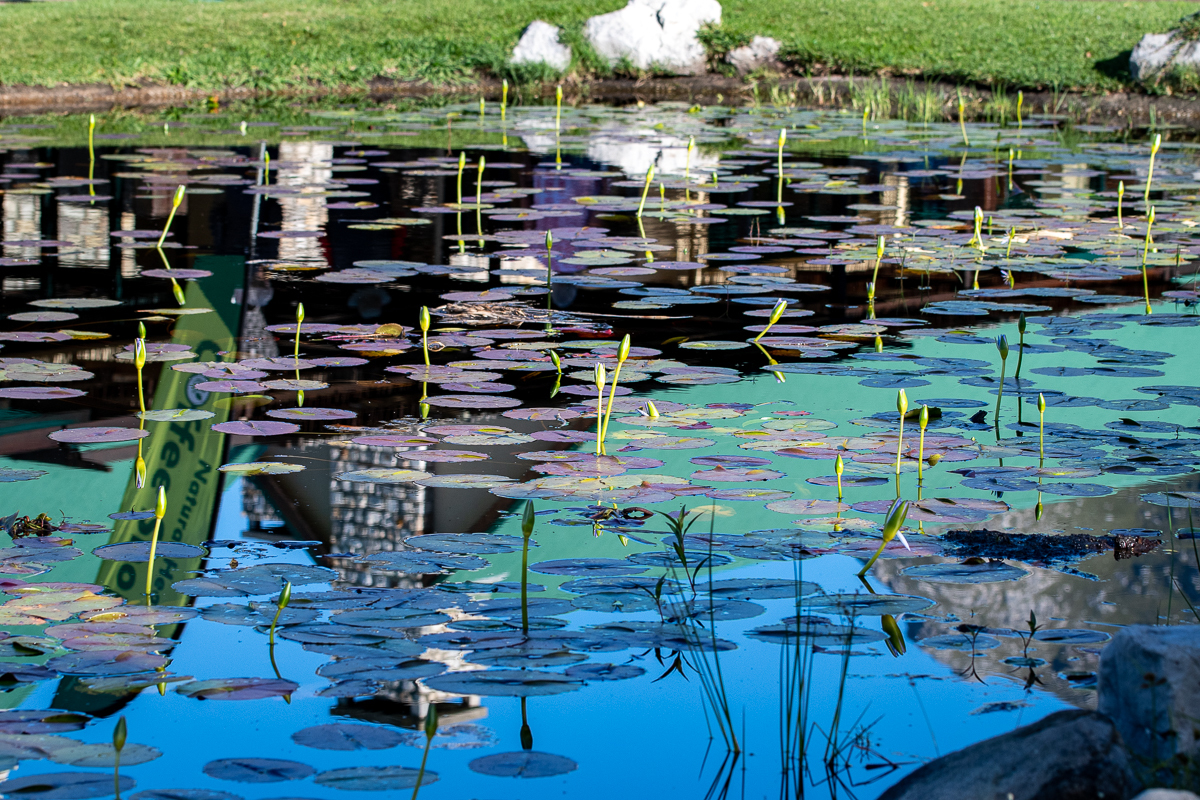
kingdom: Plantae
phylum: Tracheophyta
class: Magnoliopsida
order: Nymphaeales
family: Nymphaeaceae
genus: Nymphaea
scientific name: Nymphaea nouchali
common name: Blue lotus
